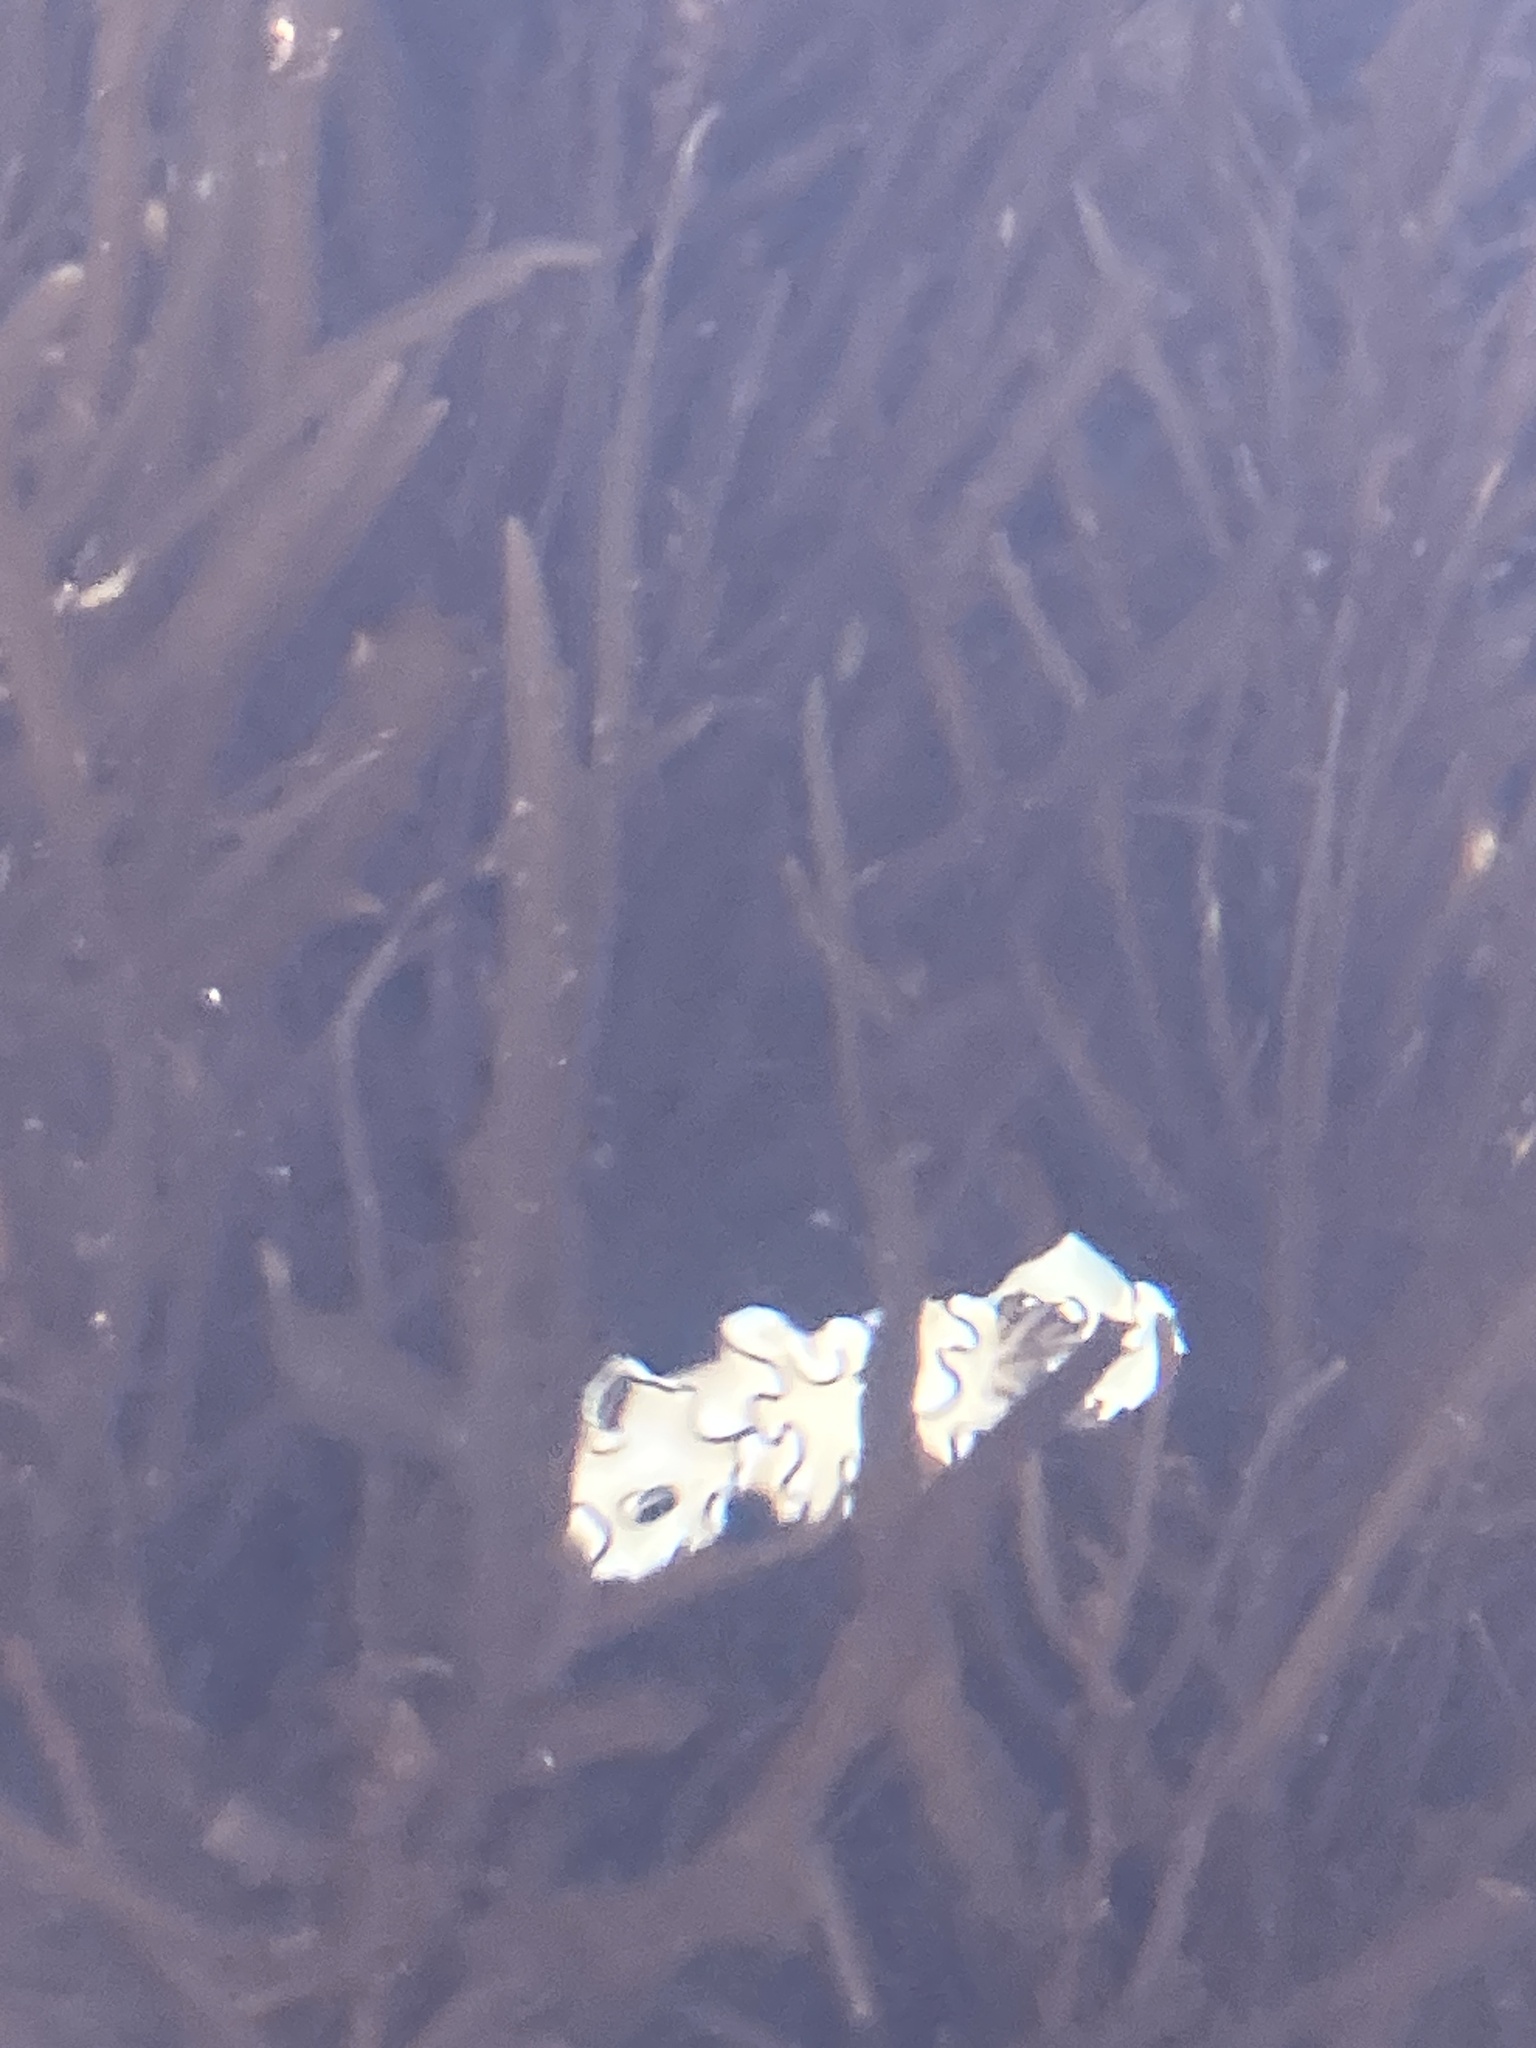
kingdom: Animalia
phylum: Mollusca
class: Gastropoda
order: Nudibranchia
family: Chromodorididae
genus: Doriprismatica
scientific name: Doriprismatica atromarginata
